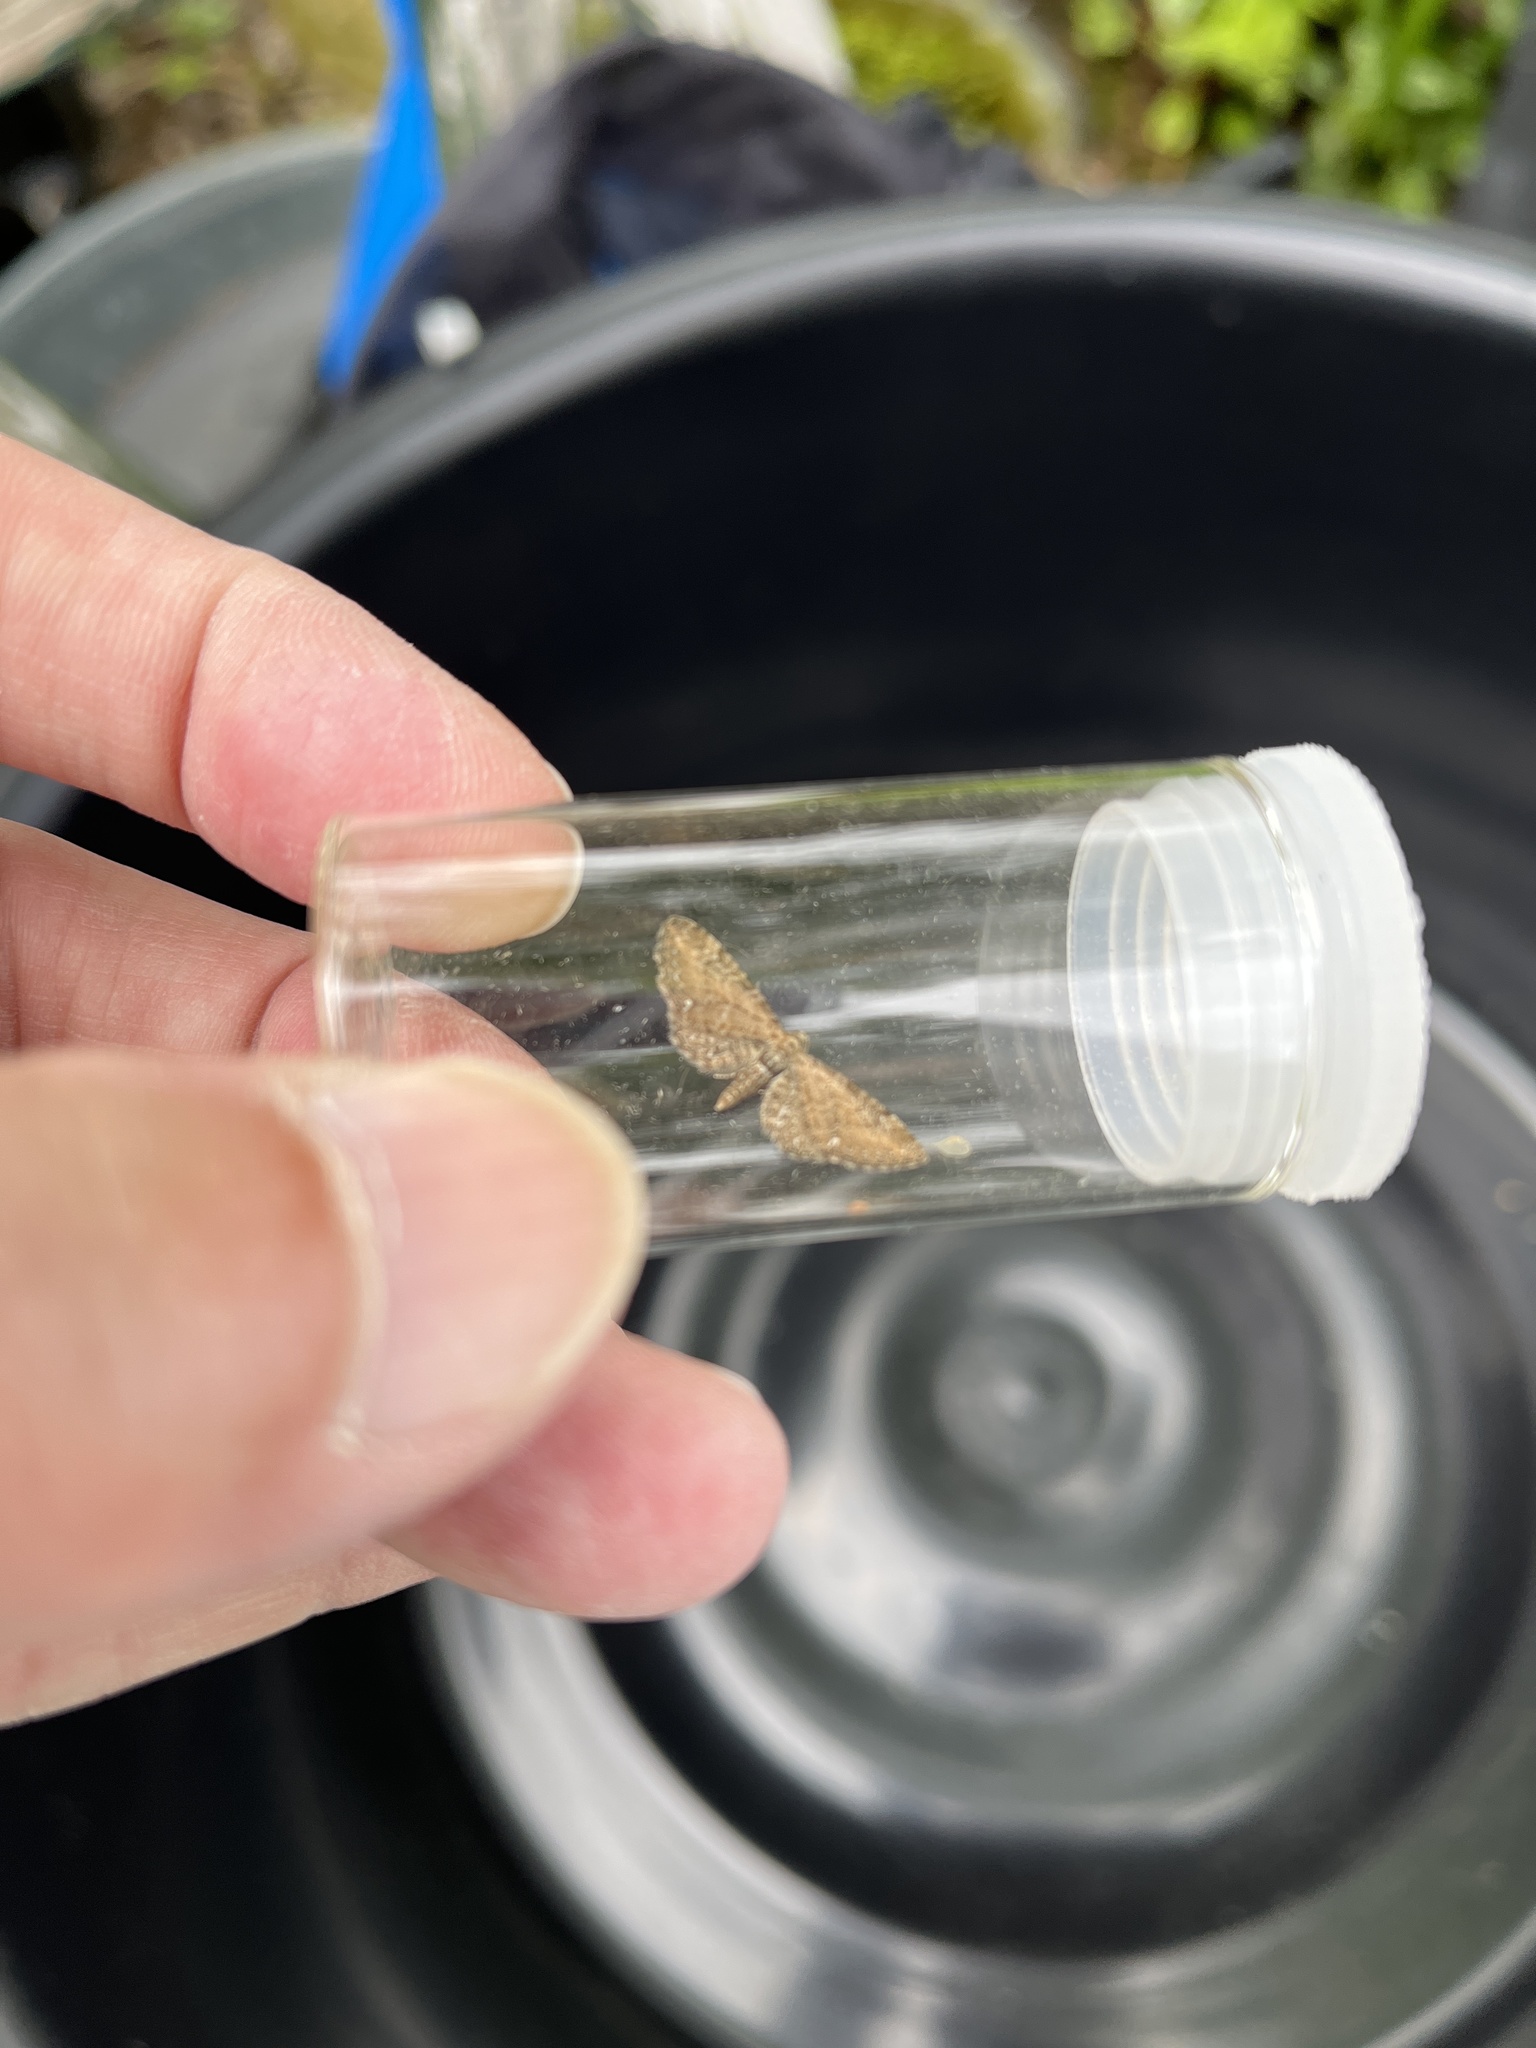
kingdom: Animalia
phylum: Arthropoda
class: Insecta
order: Lepidoptera
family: Geometridae
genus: Eupithecia
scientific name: Eupithecia vulgata
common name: Common pug
